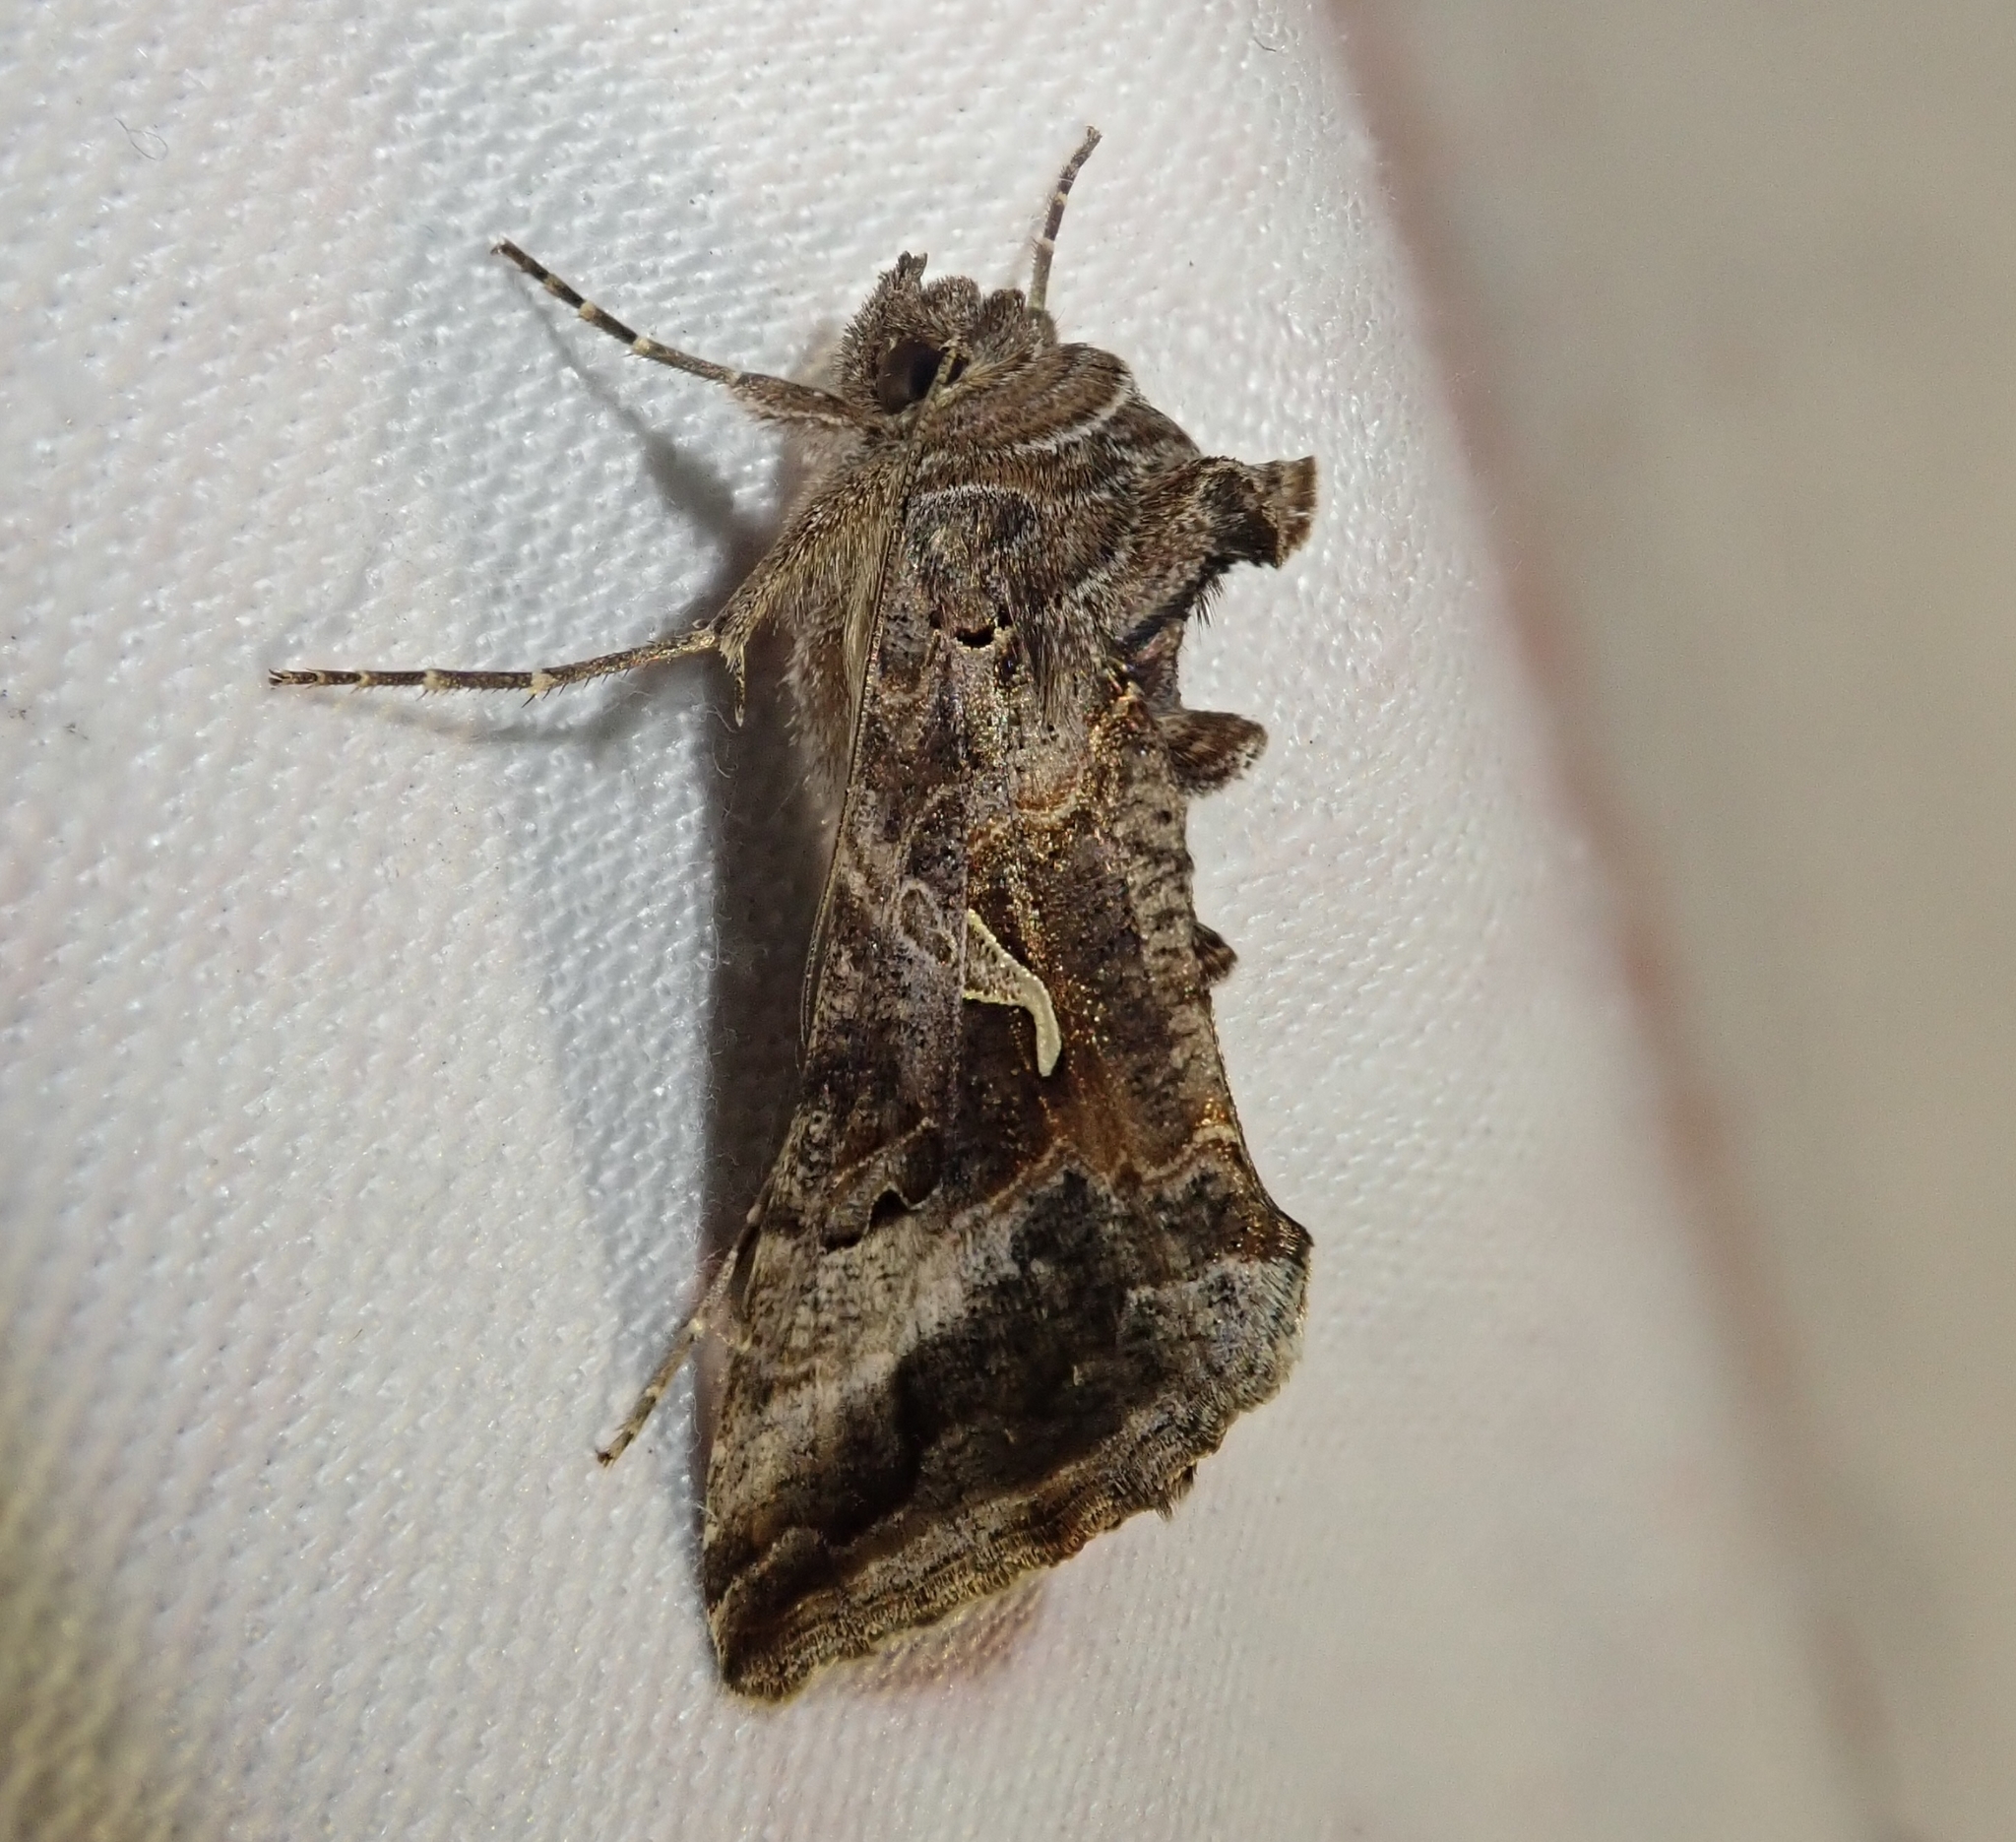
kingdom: Animalia
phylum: Arthropoda
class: Insecta
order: Lepidoptera
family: Noctuidae
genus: Autographa
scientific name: Autographa gamma
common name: Silver y
